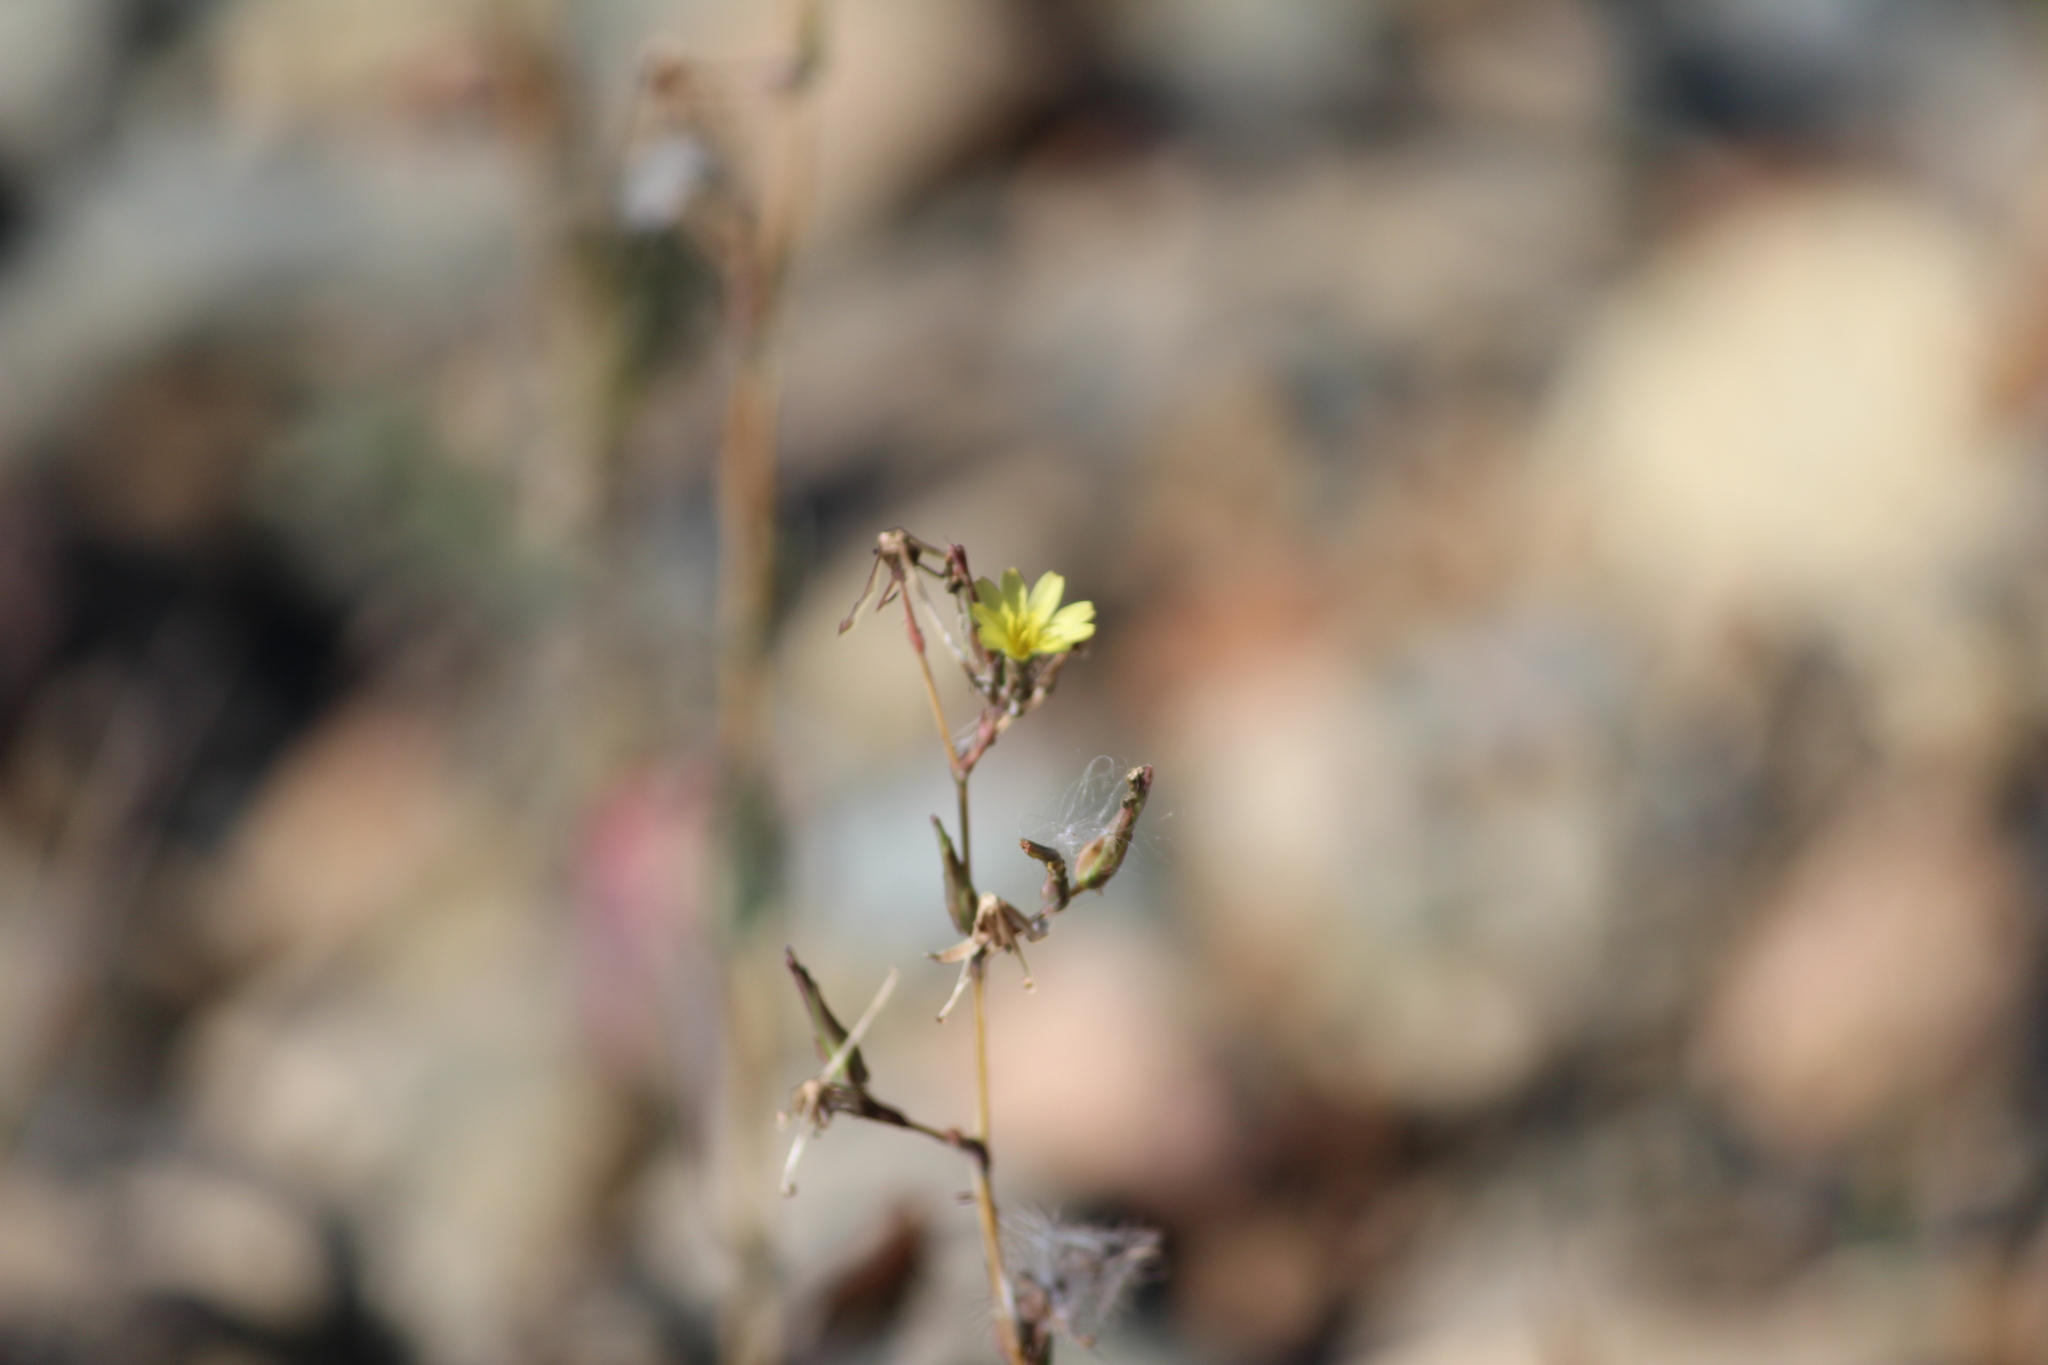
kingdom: Plantae
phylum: Tracheophyta
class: Magnoliopsida
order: Asterales
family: Asteraceae
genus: Lactuca
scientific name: Lactuca serriola
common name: Prickly lettuce
